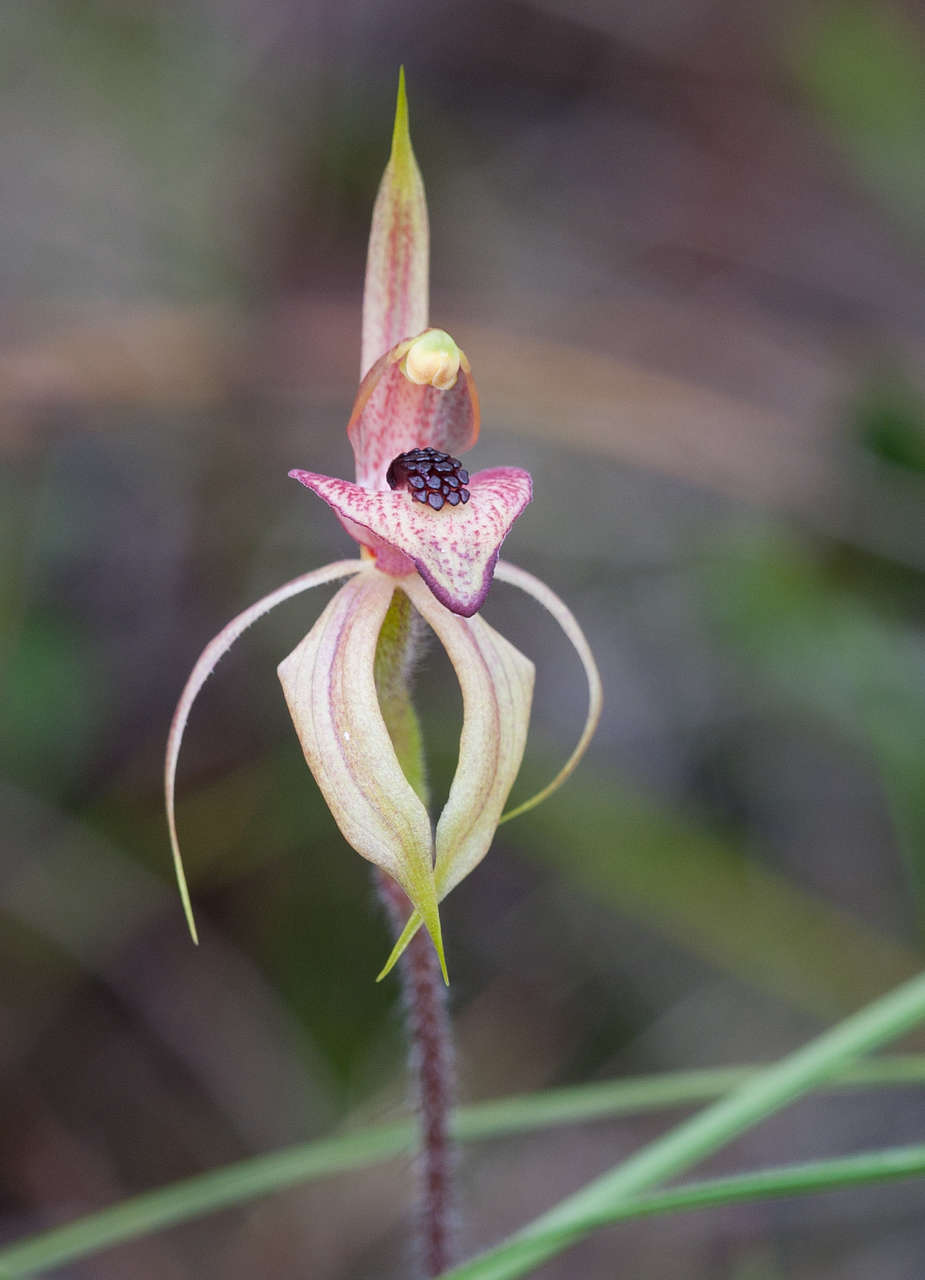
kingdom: Plantae
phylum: Tracheophyta
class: Liliopsida
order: Asparagales
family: Orchidaceae
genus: Caladenia
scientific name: Caladenia cardiochila
